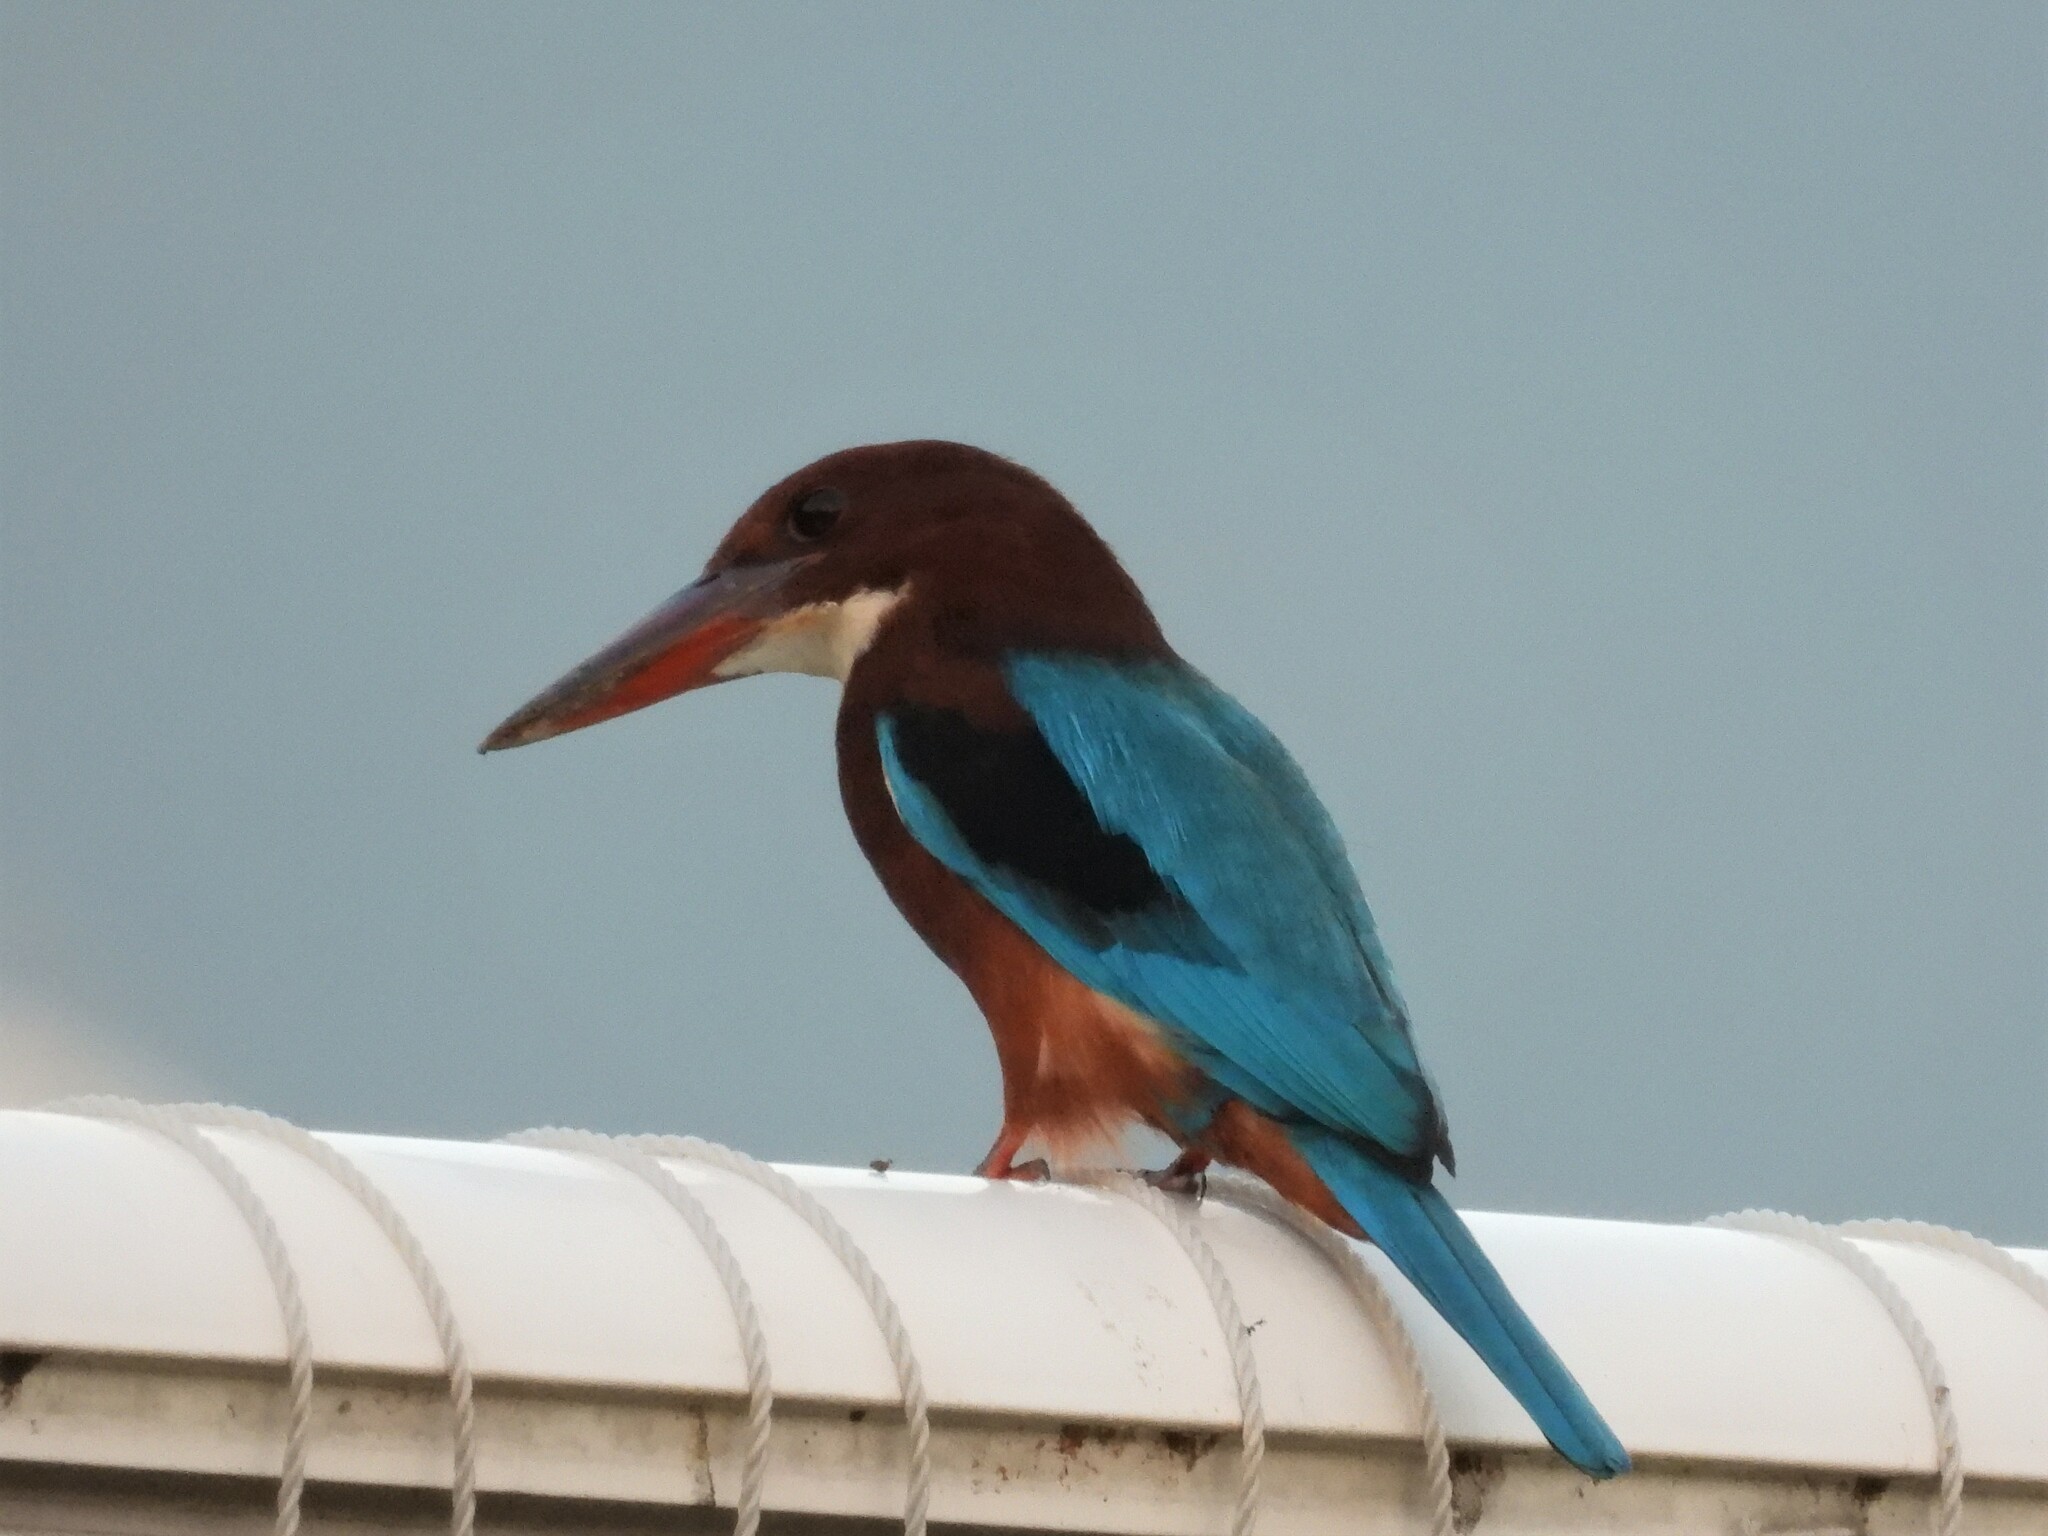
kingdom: Animalia
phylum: Chordata
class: Aves
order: Coraciiformes
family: Alcedinidae
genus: Halcyon
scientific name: Halcyon smyrnensis
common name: White-throated kingfisher
